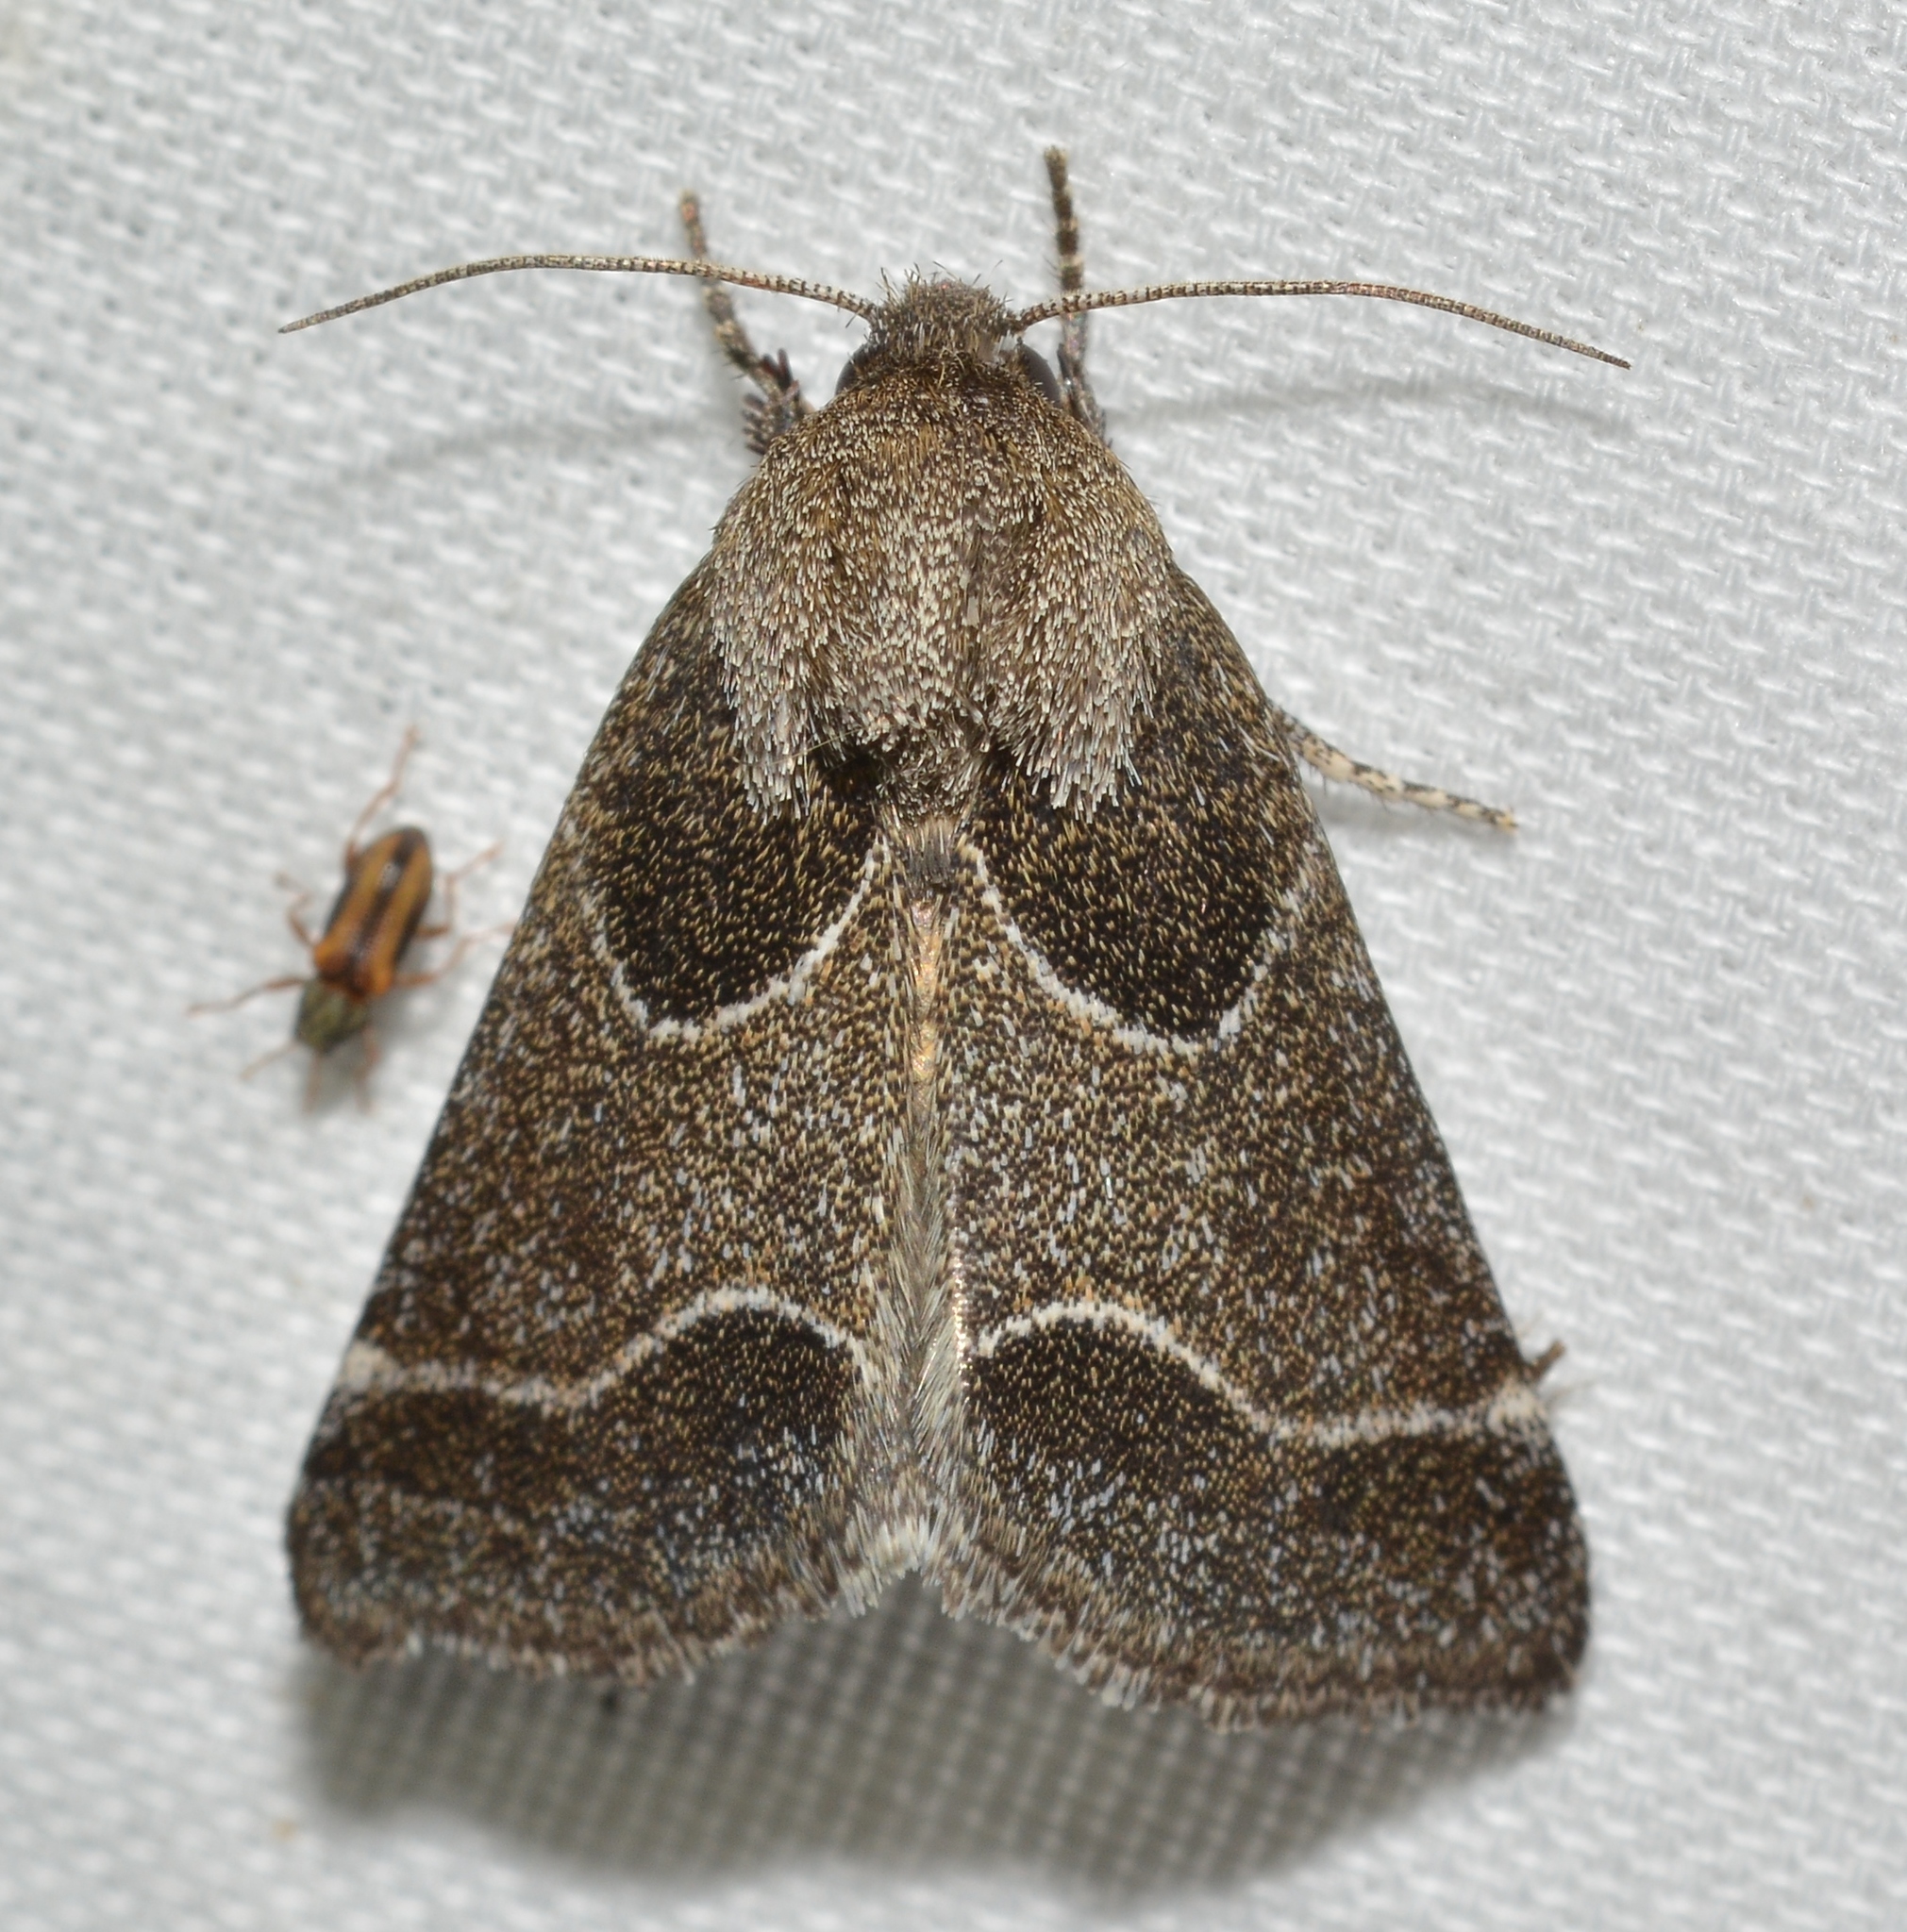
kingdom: Animalia
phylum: Arthropoda
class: Insecta
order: Lepidoptera
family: Noctuidae
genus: Schinia
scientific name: Schinia rivulosa
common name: Scarce meal-moth
